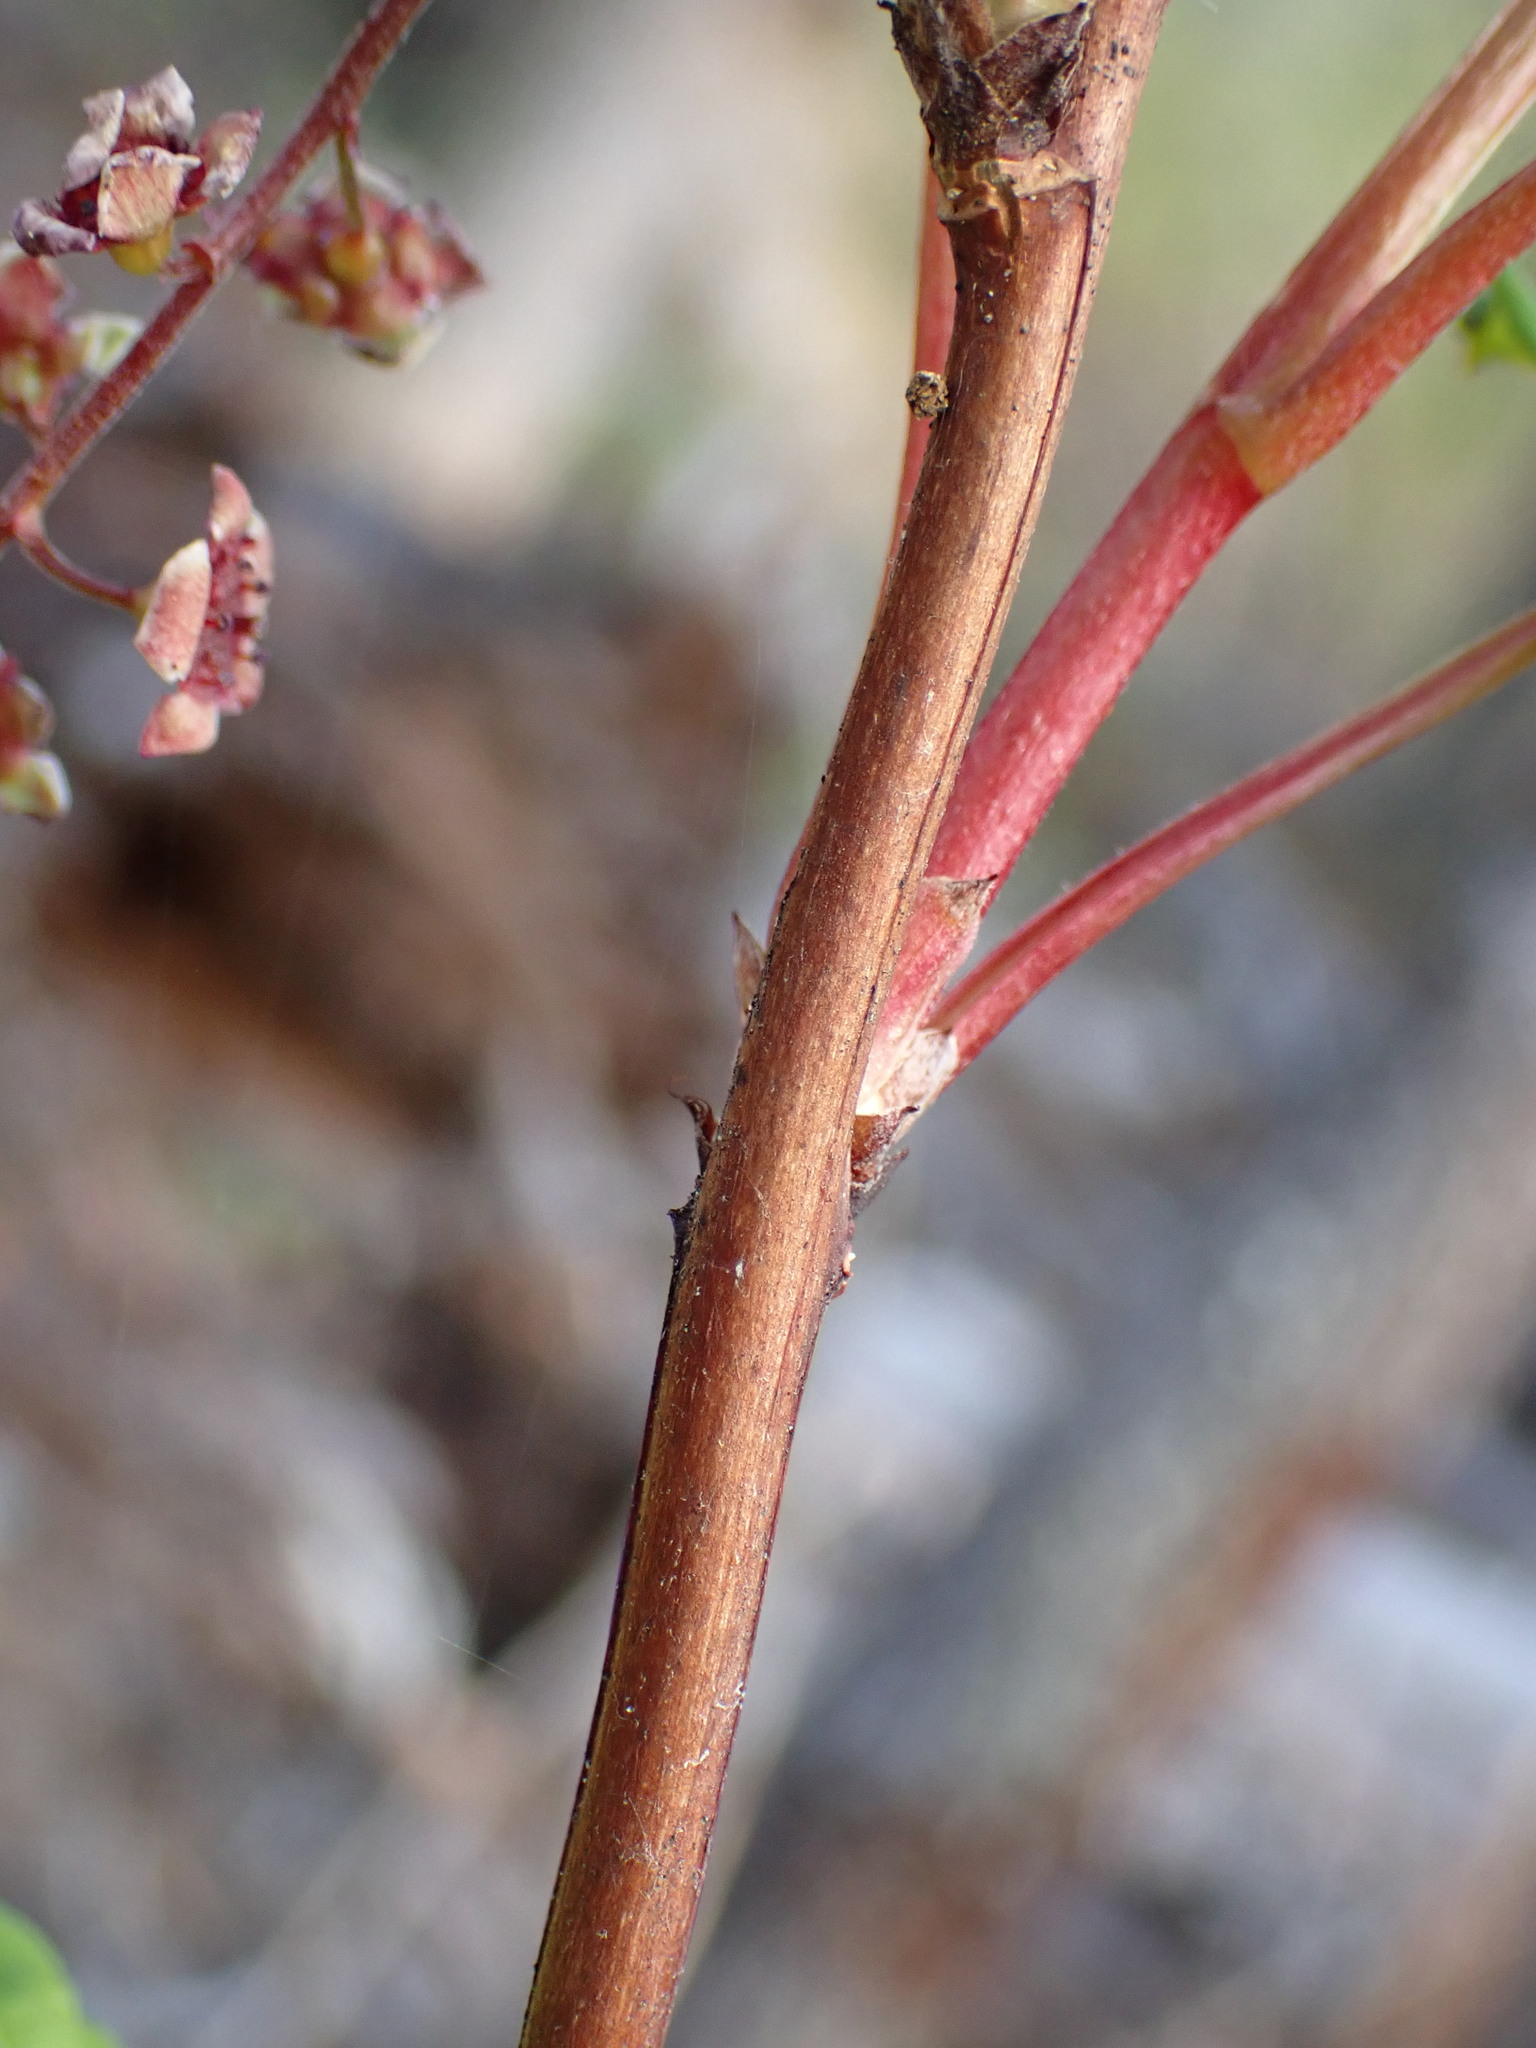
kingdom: Plantae
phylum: Tracheophyta
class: Magnoliopsida
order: Saxifragales
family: Grossulariaceae
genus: Ribes
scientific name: Ribes triste
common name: Swamp red currant
